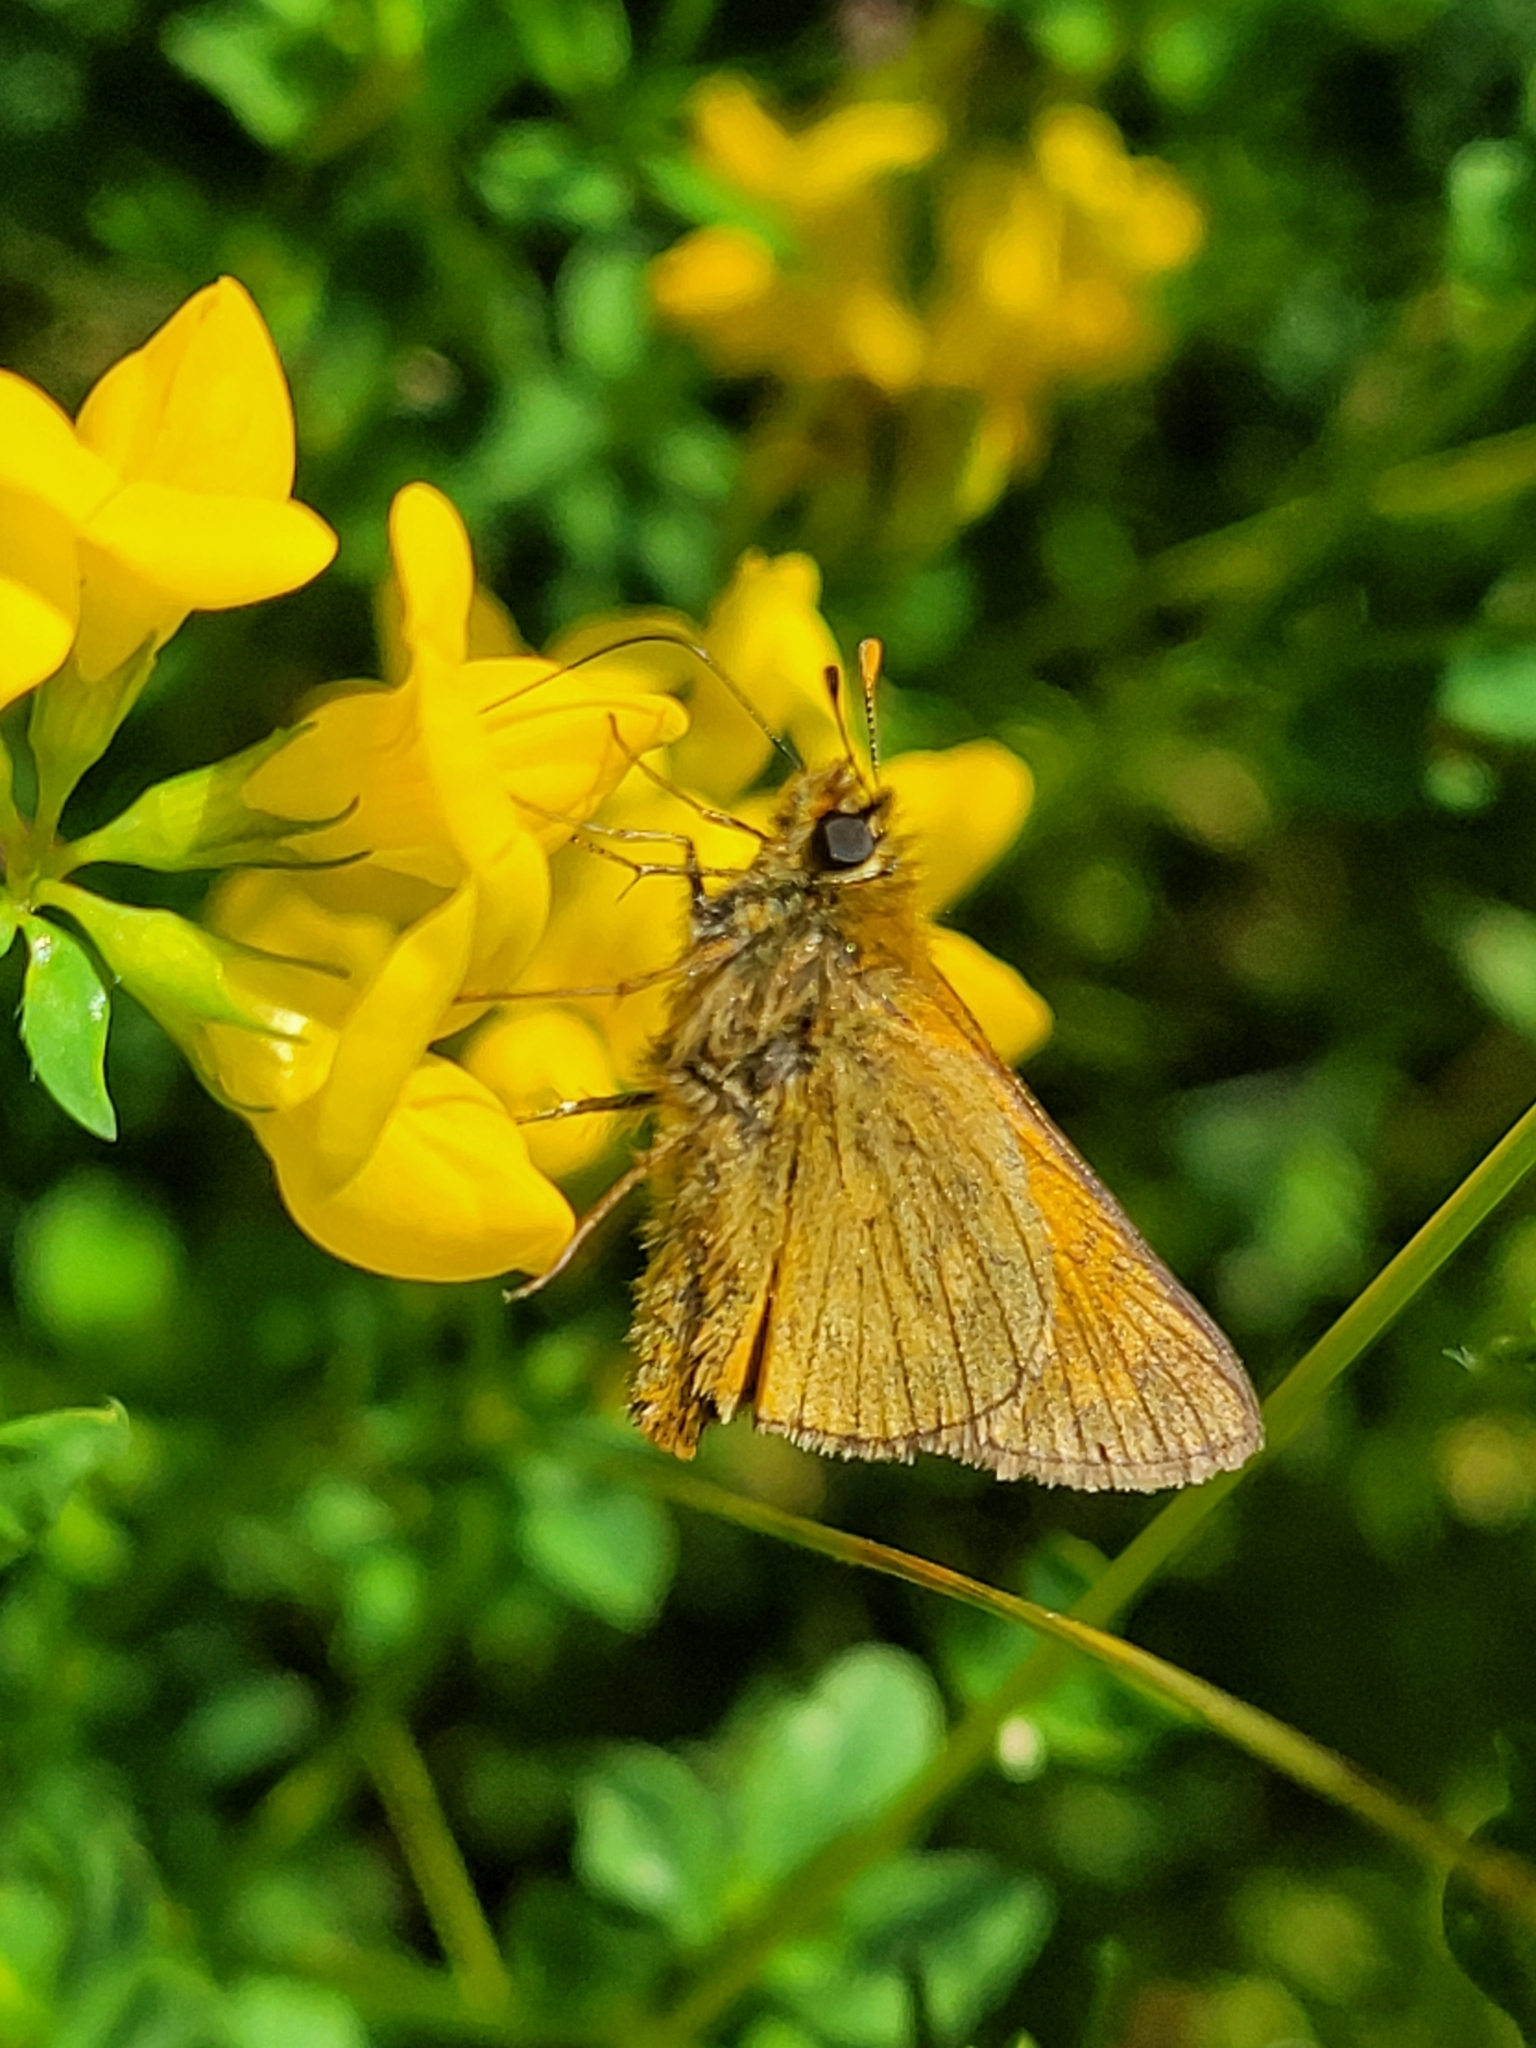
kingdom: Animalia
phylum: Arthropoda
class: Insecta
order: Lepidoptera
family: Hesperiidae
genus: Ochlodes
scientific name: Ochlodes venata
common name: Large skipper
